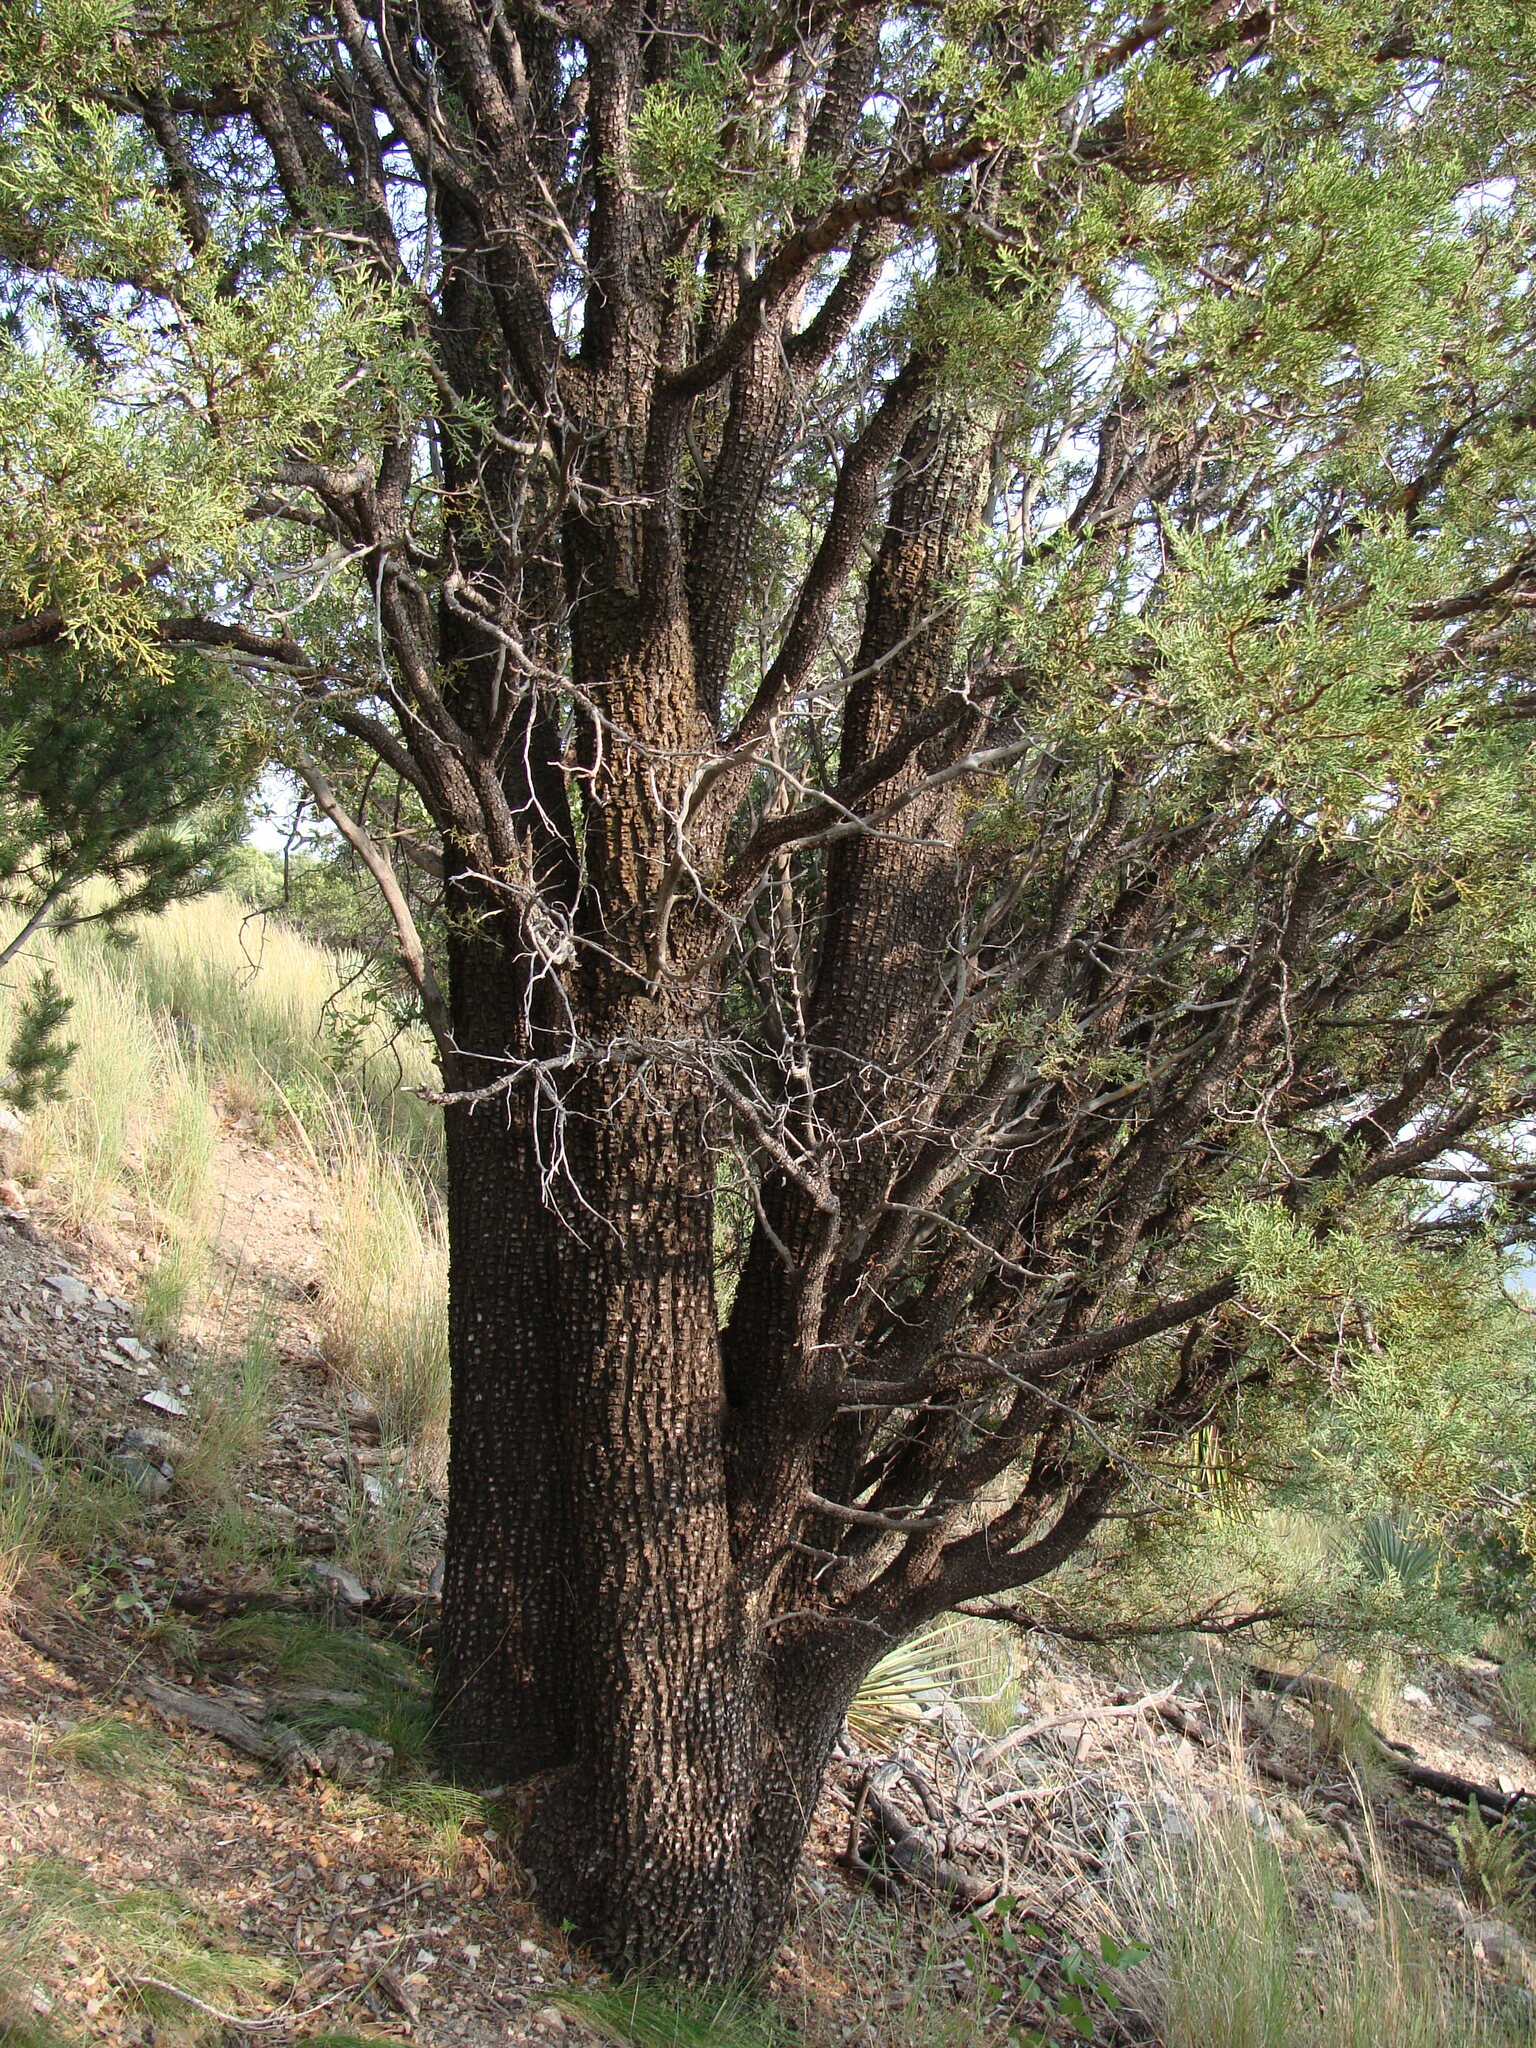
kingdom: Plantae
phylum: Tracheophyta
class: Pinopsida
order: Pinales
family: Cupressaceae
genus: Juniperus
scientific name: Juniperus deppeana
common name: Alligator juniper
